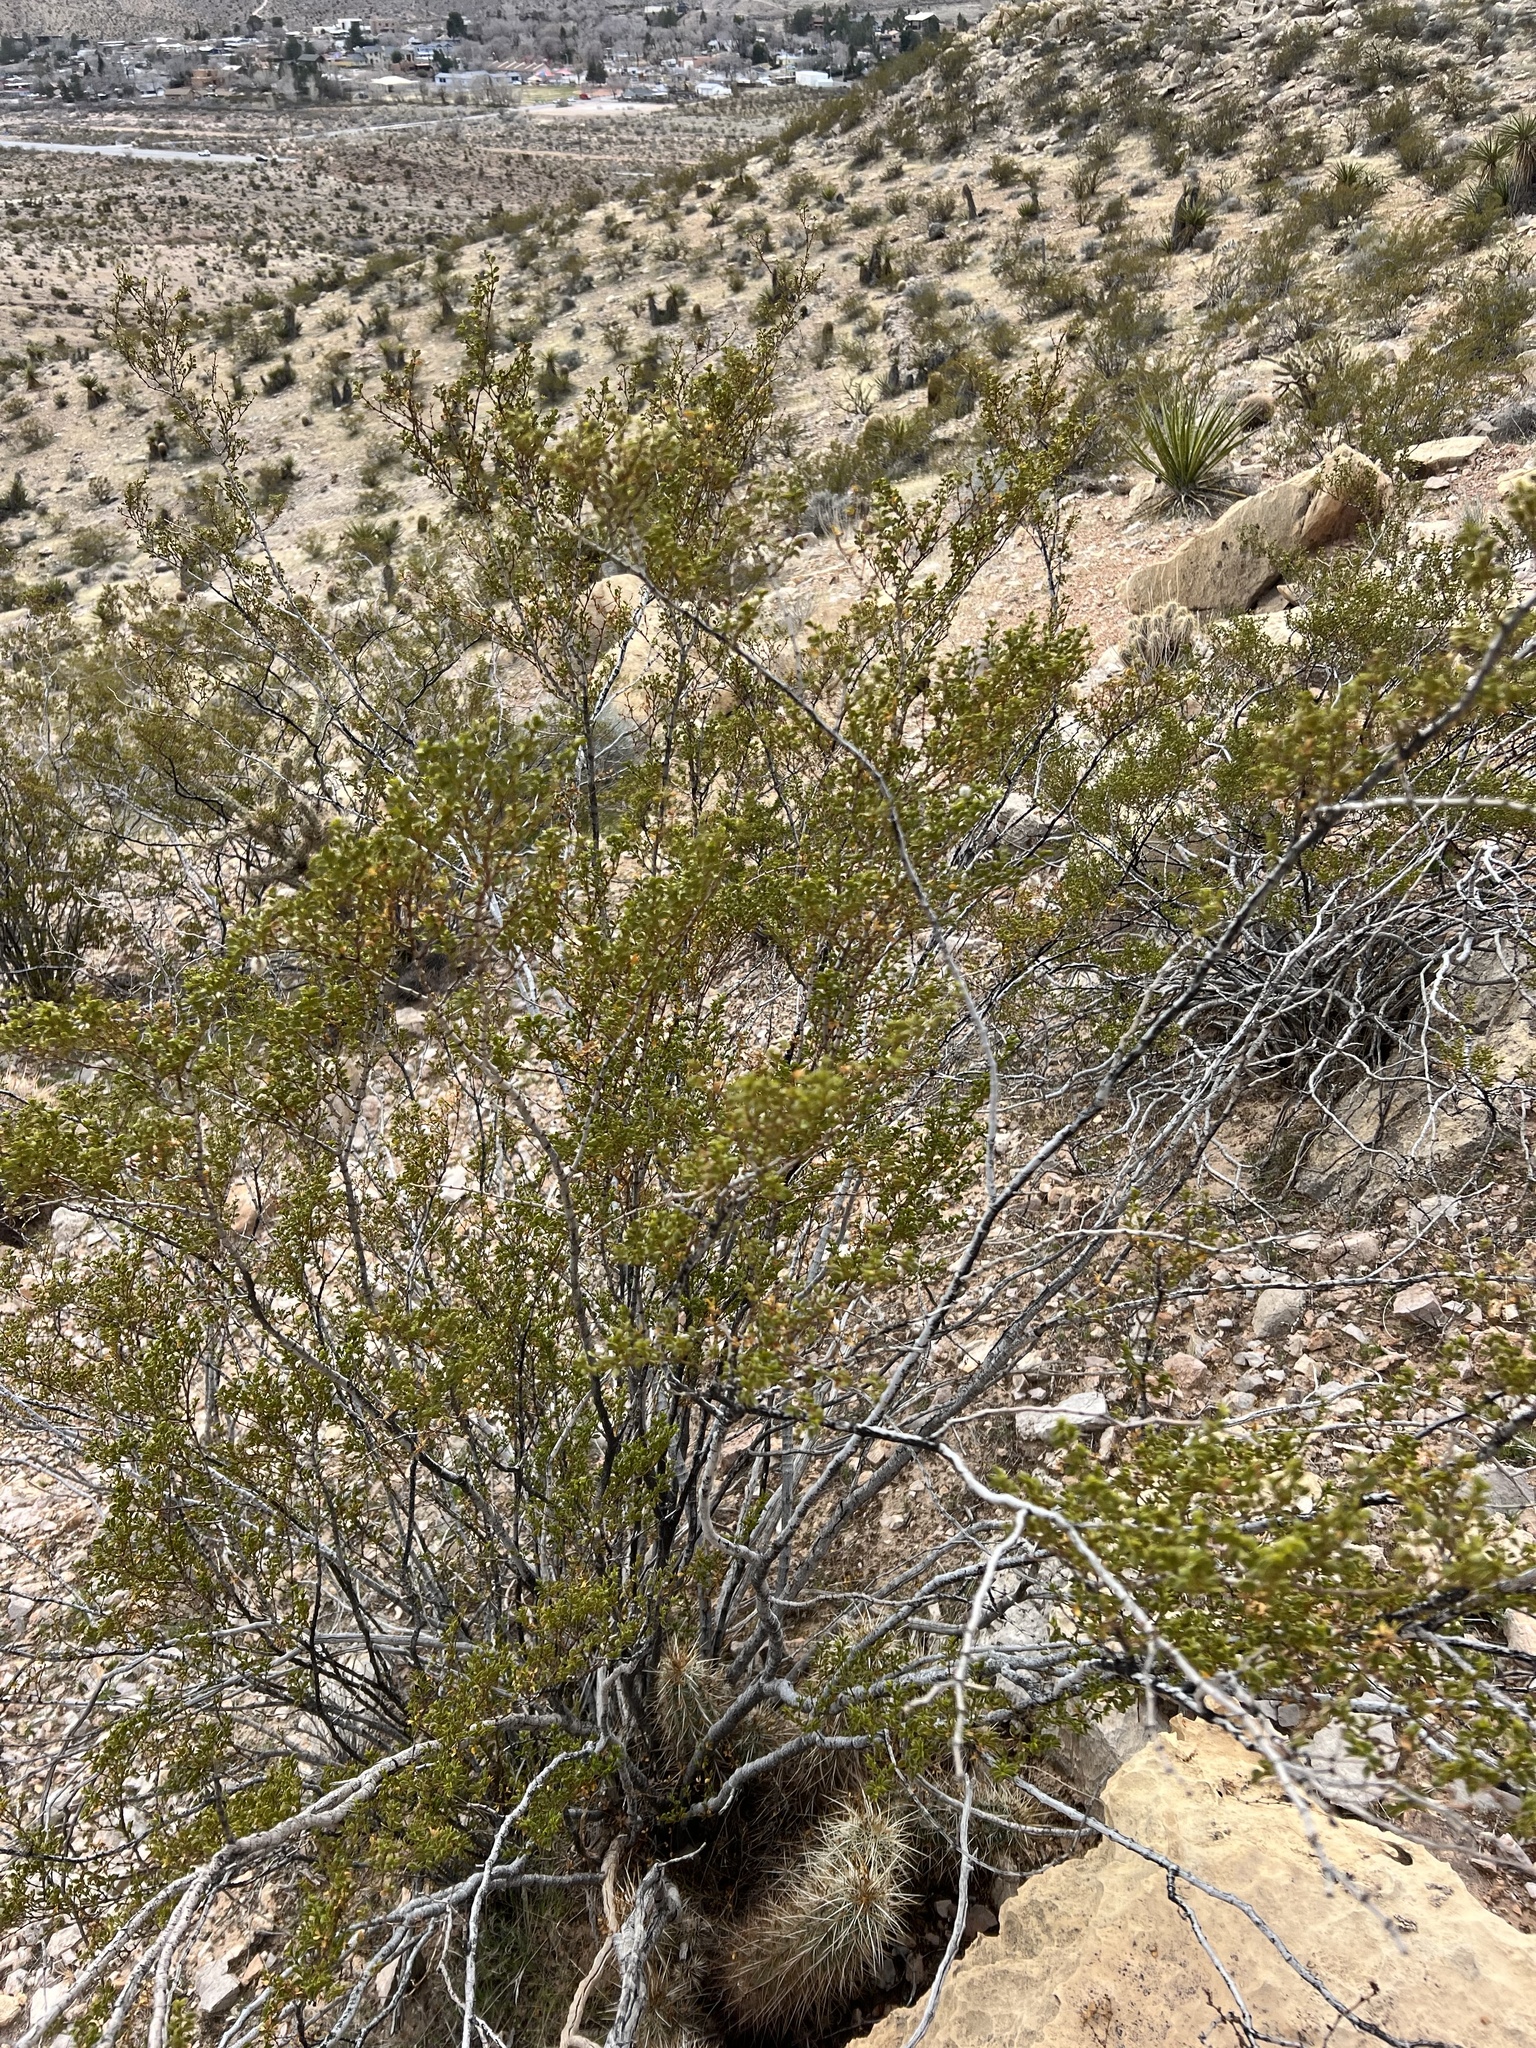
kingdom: Plantae
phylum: Tracheophyta
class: Magnoliopsida
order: Zygophyllales
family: Zygophyllaceae
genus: Larrea
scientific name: Larrea tridentata
